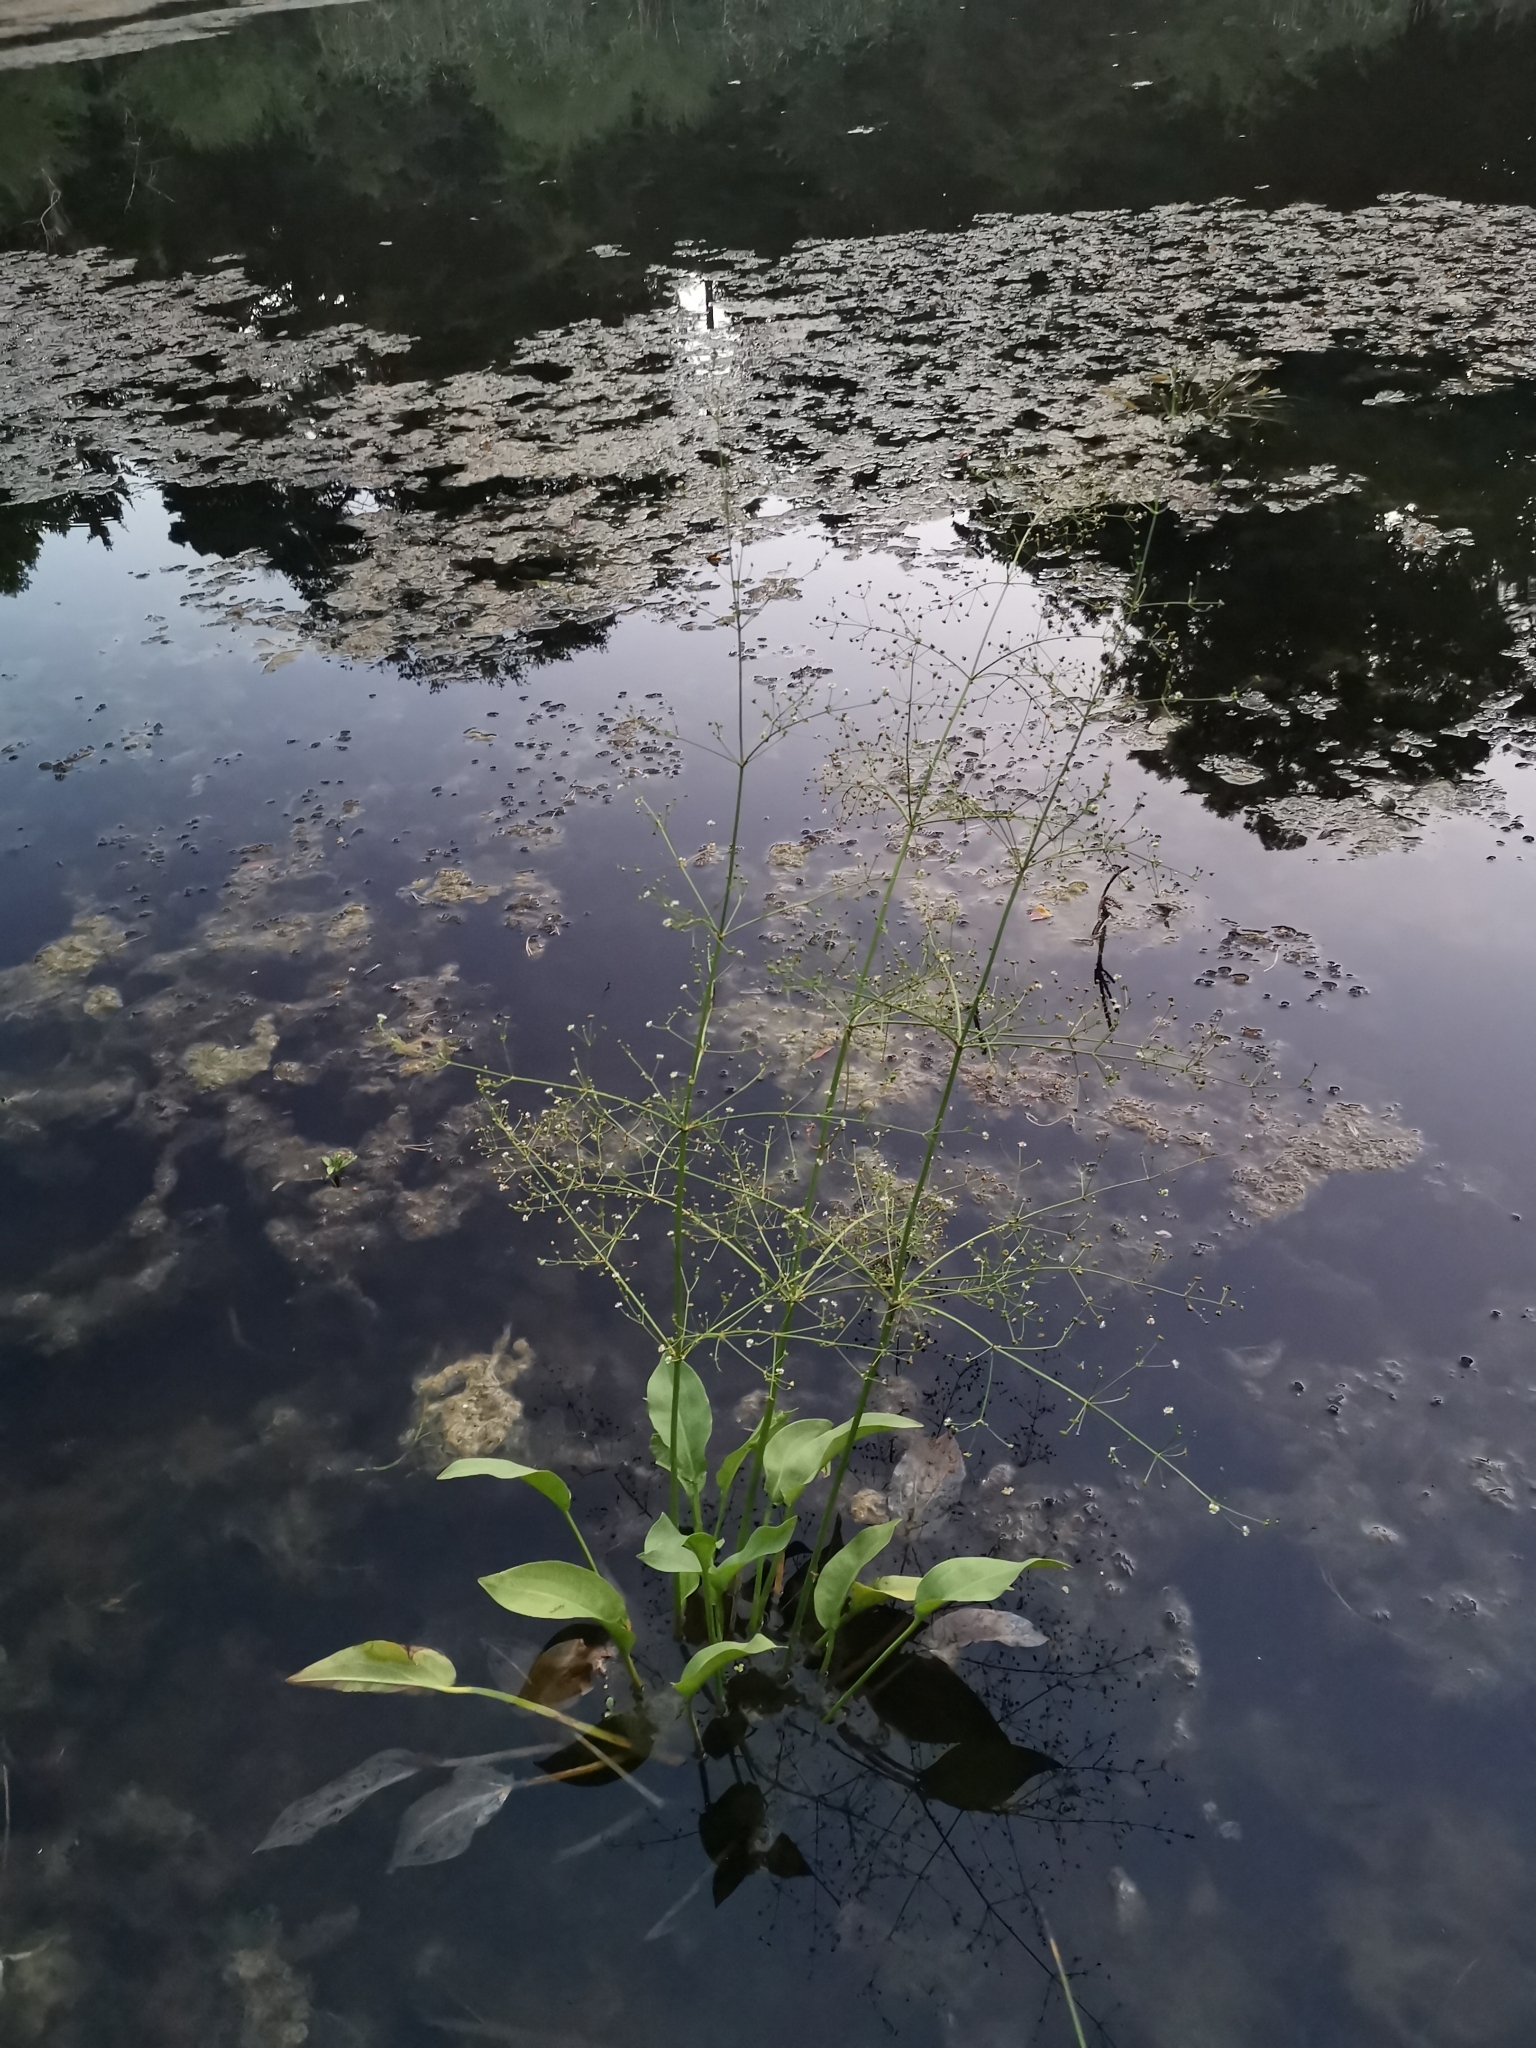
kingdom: Plantae
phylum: Tracheophyta
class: Liliopsida
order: Alismatales
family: Alismataceae
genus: Alisma
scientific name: Alisma plantago-aquatica
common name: Water-plantain
